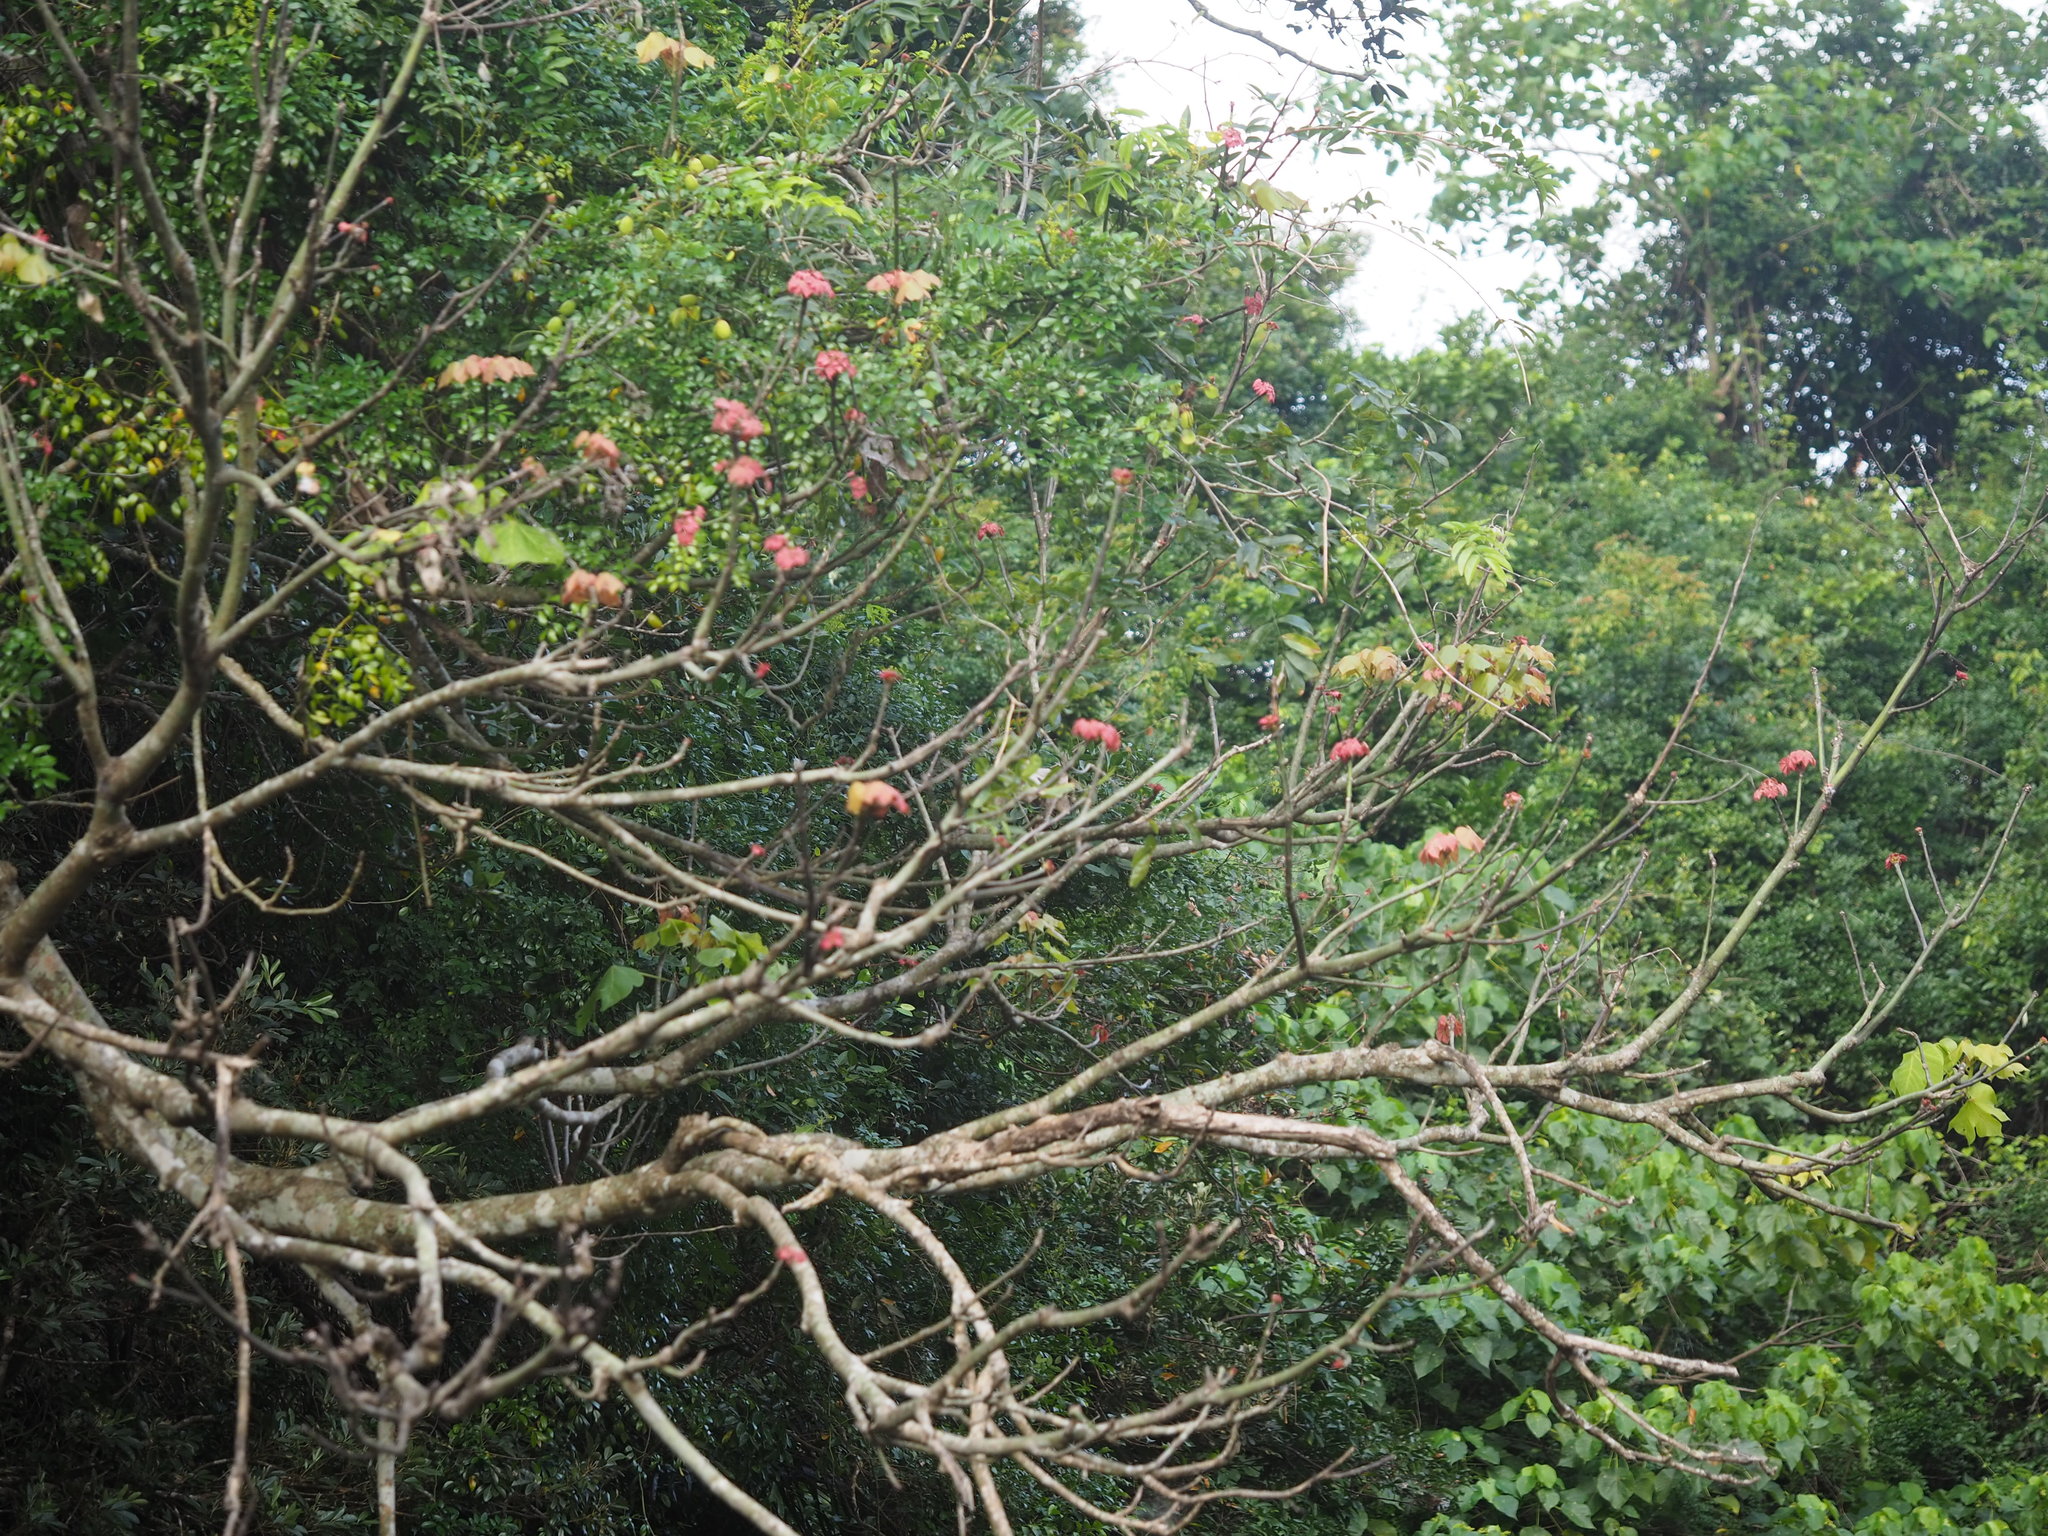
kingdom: Plantae
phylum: Tracheophyta
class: Magnoliopsida
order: Malpighiales
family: Euphorbiaceae
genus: Mallotus
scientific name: Mallotus japonicus
